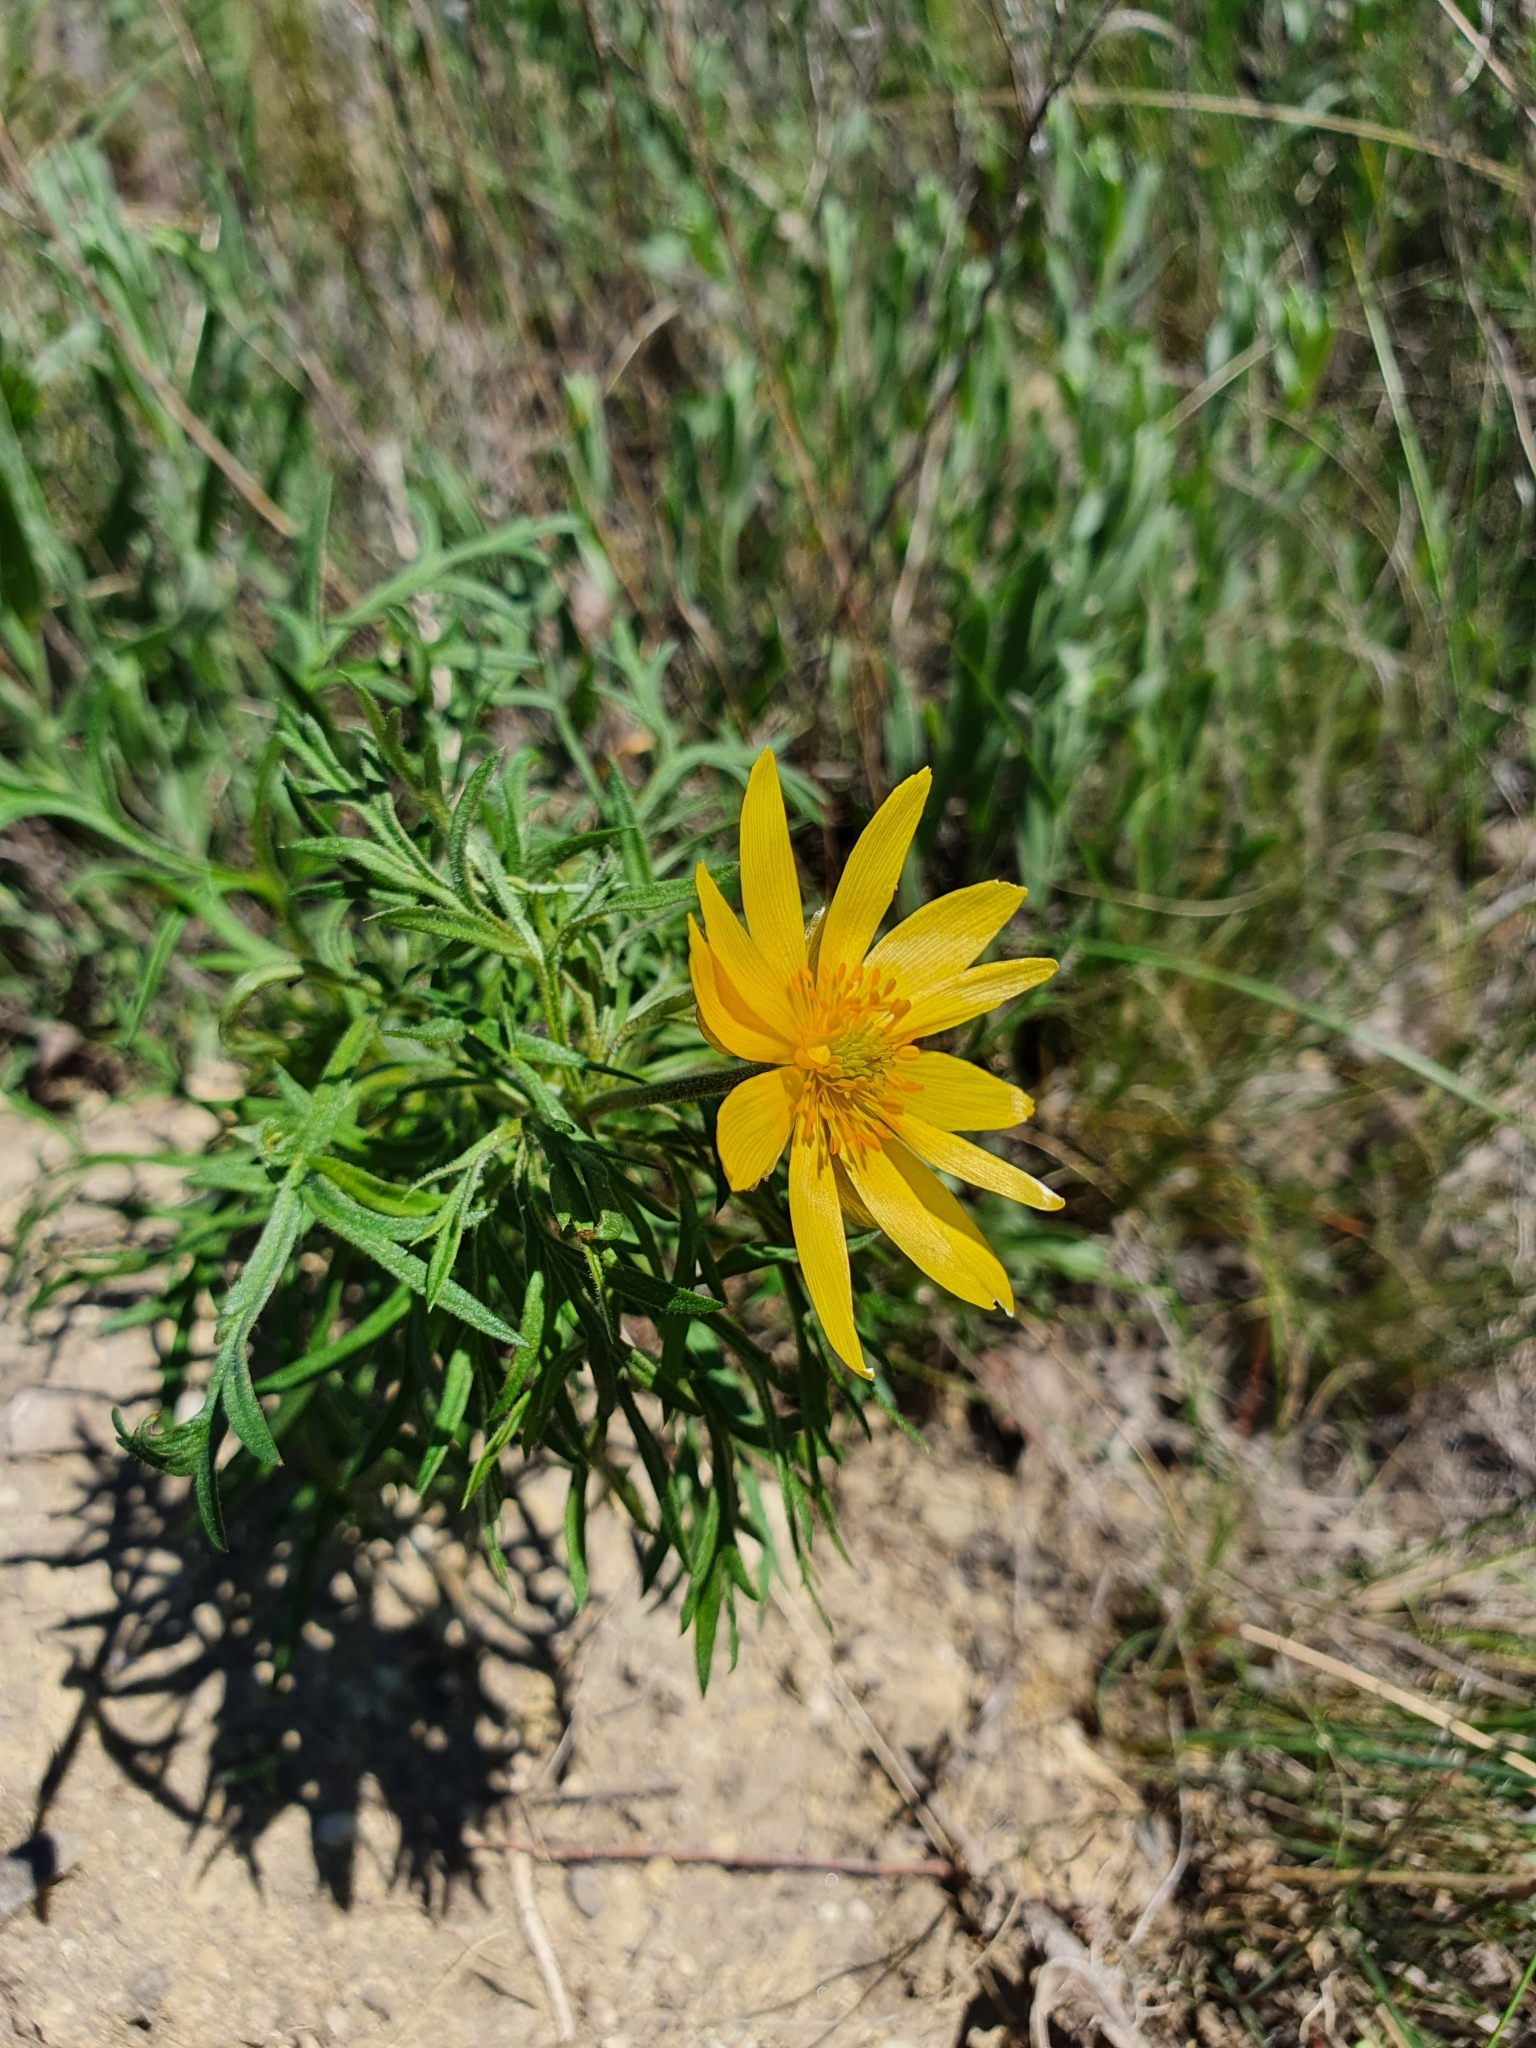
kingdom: Plantae
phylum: Tracheophyta
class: Magnoliopsida
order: Ranunculales
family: Ranunculaceae
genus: Adonis
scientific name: Adonis volgensis
